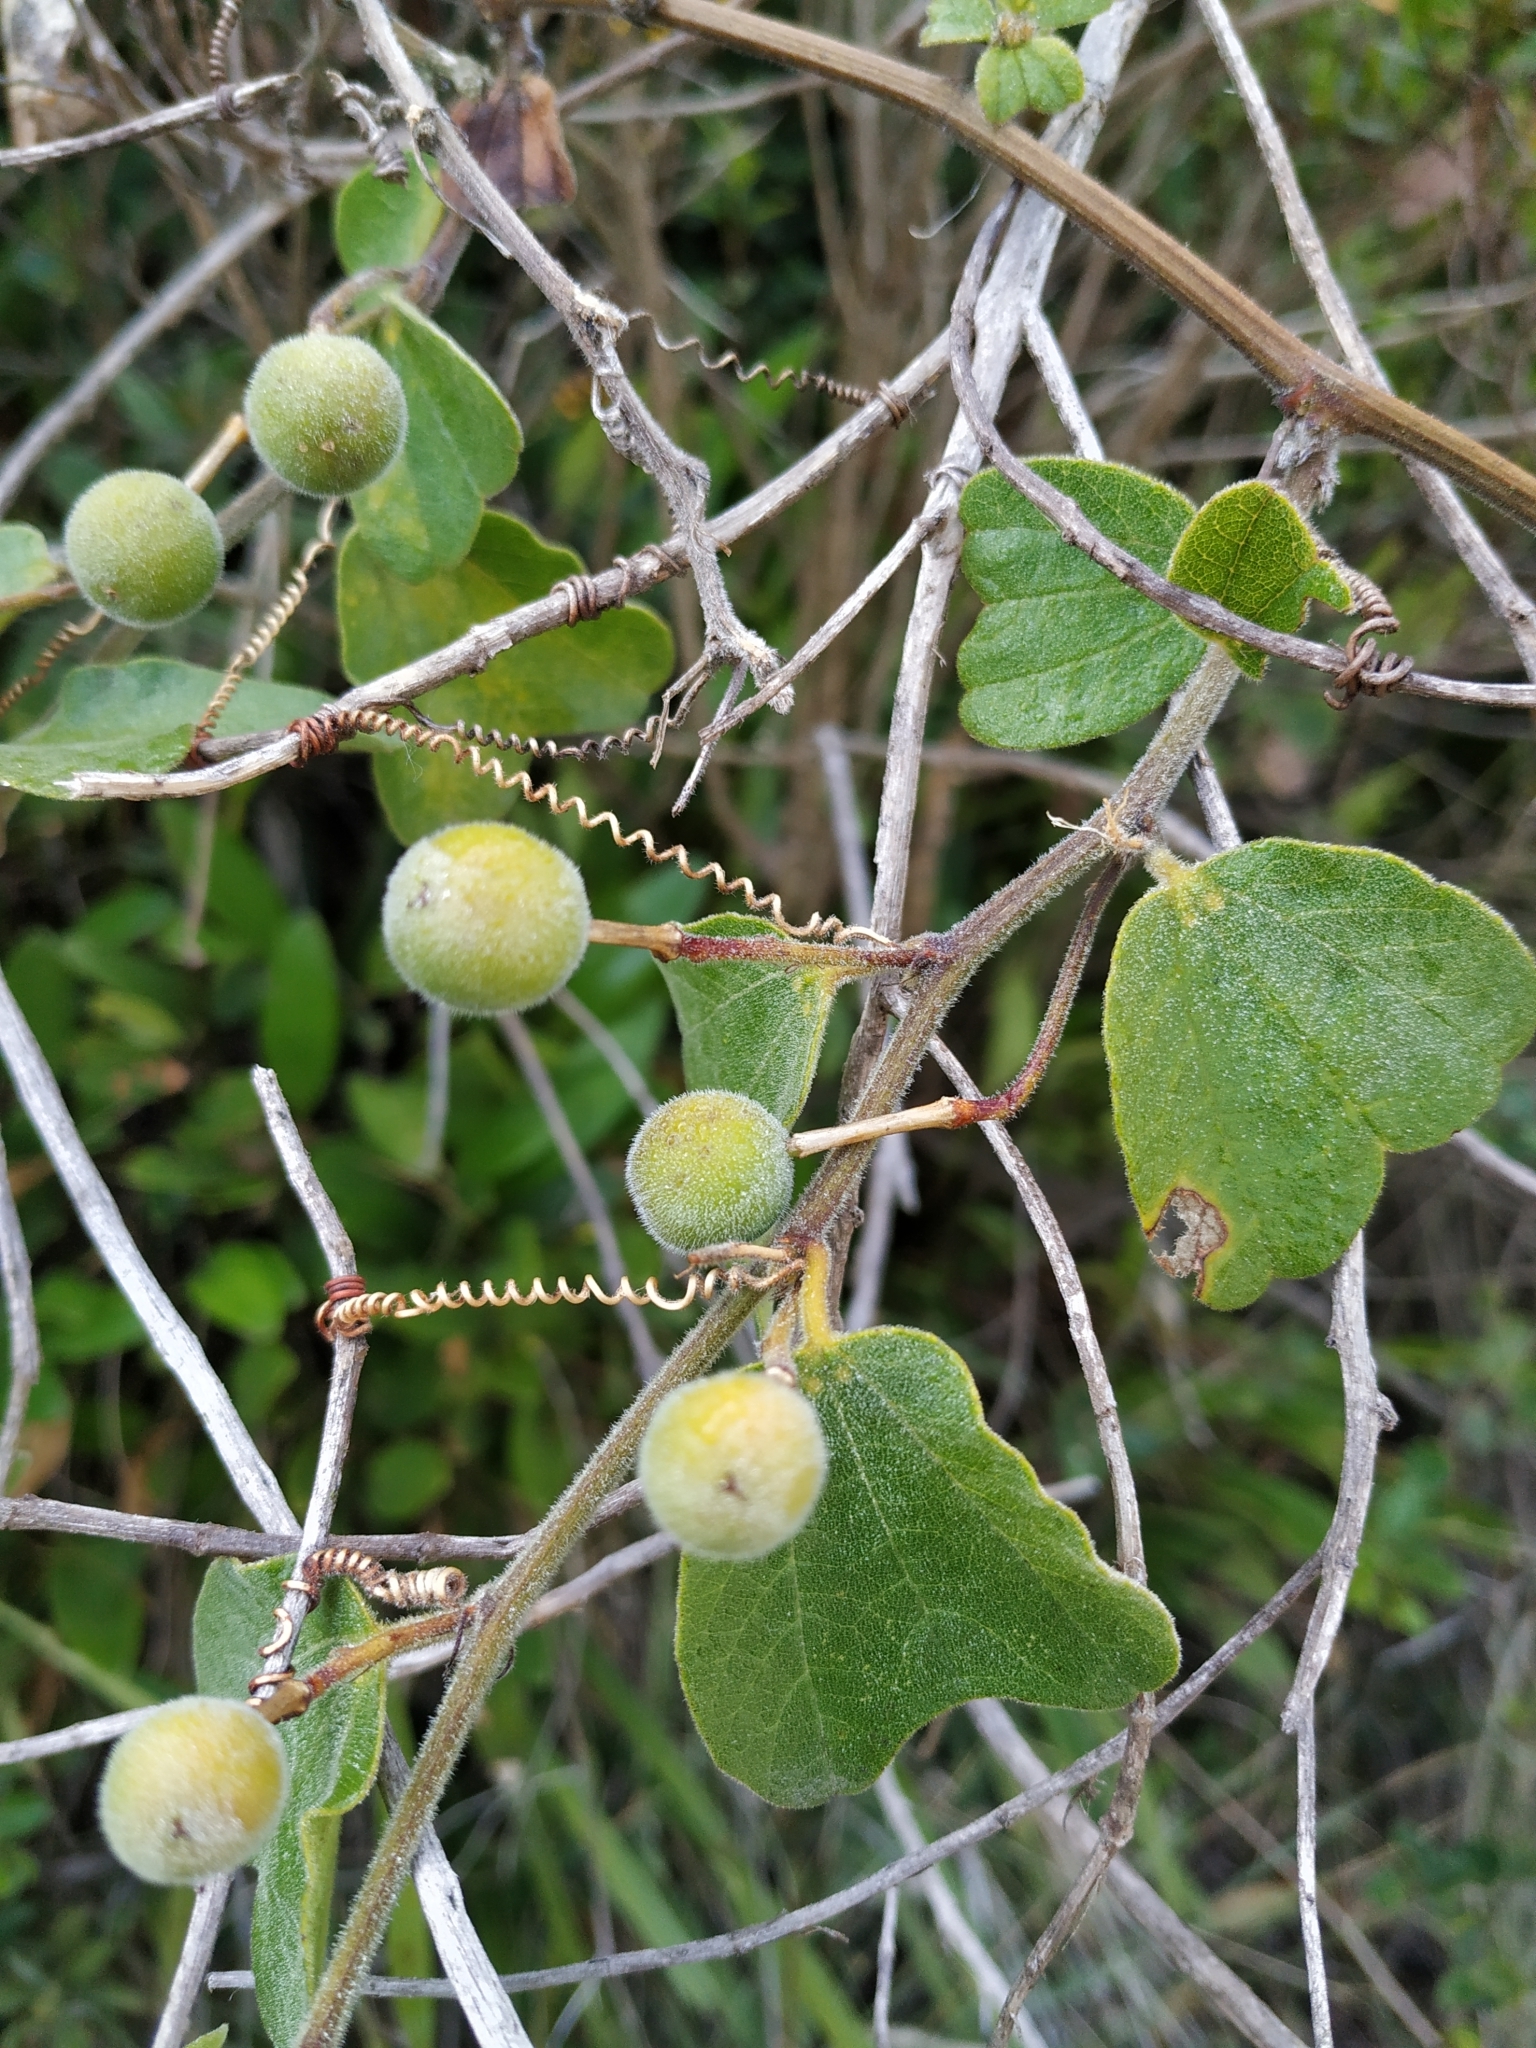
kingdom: Plantae
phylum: Tracheophyta
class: Magnoliopsida
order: Malpighiales
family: Passifloraceae
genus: Passiflora
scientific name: Passiflora bogotensis
